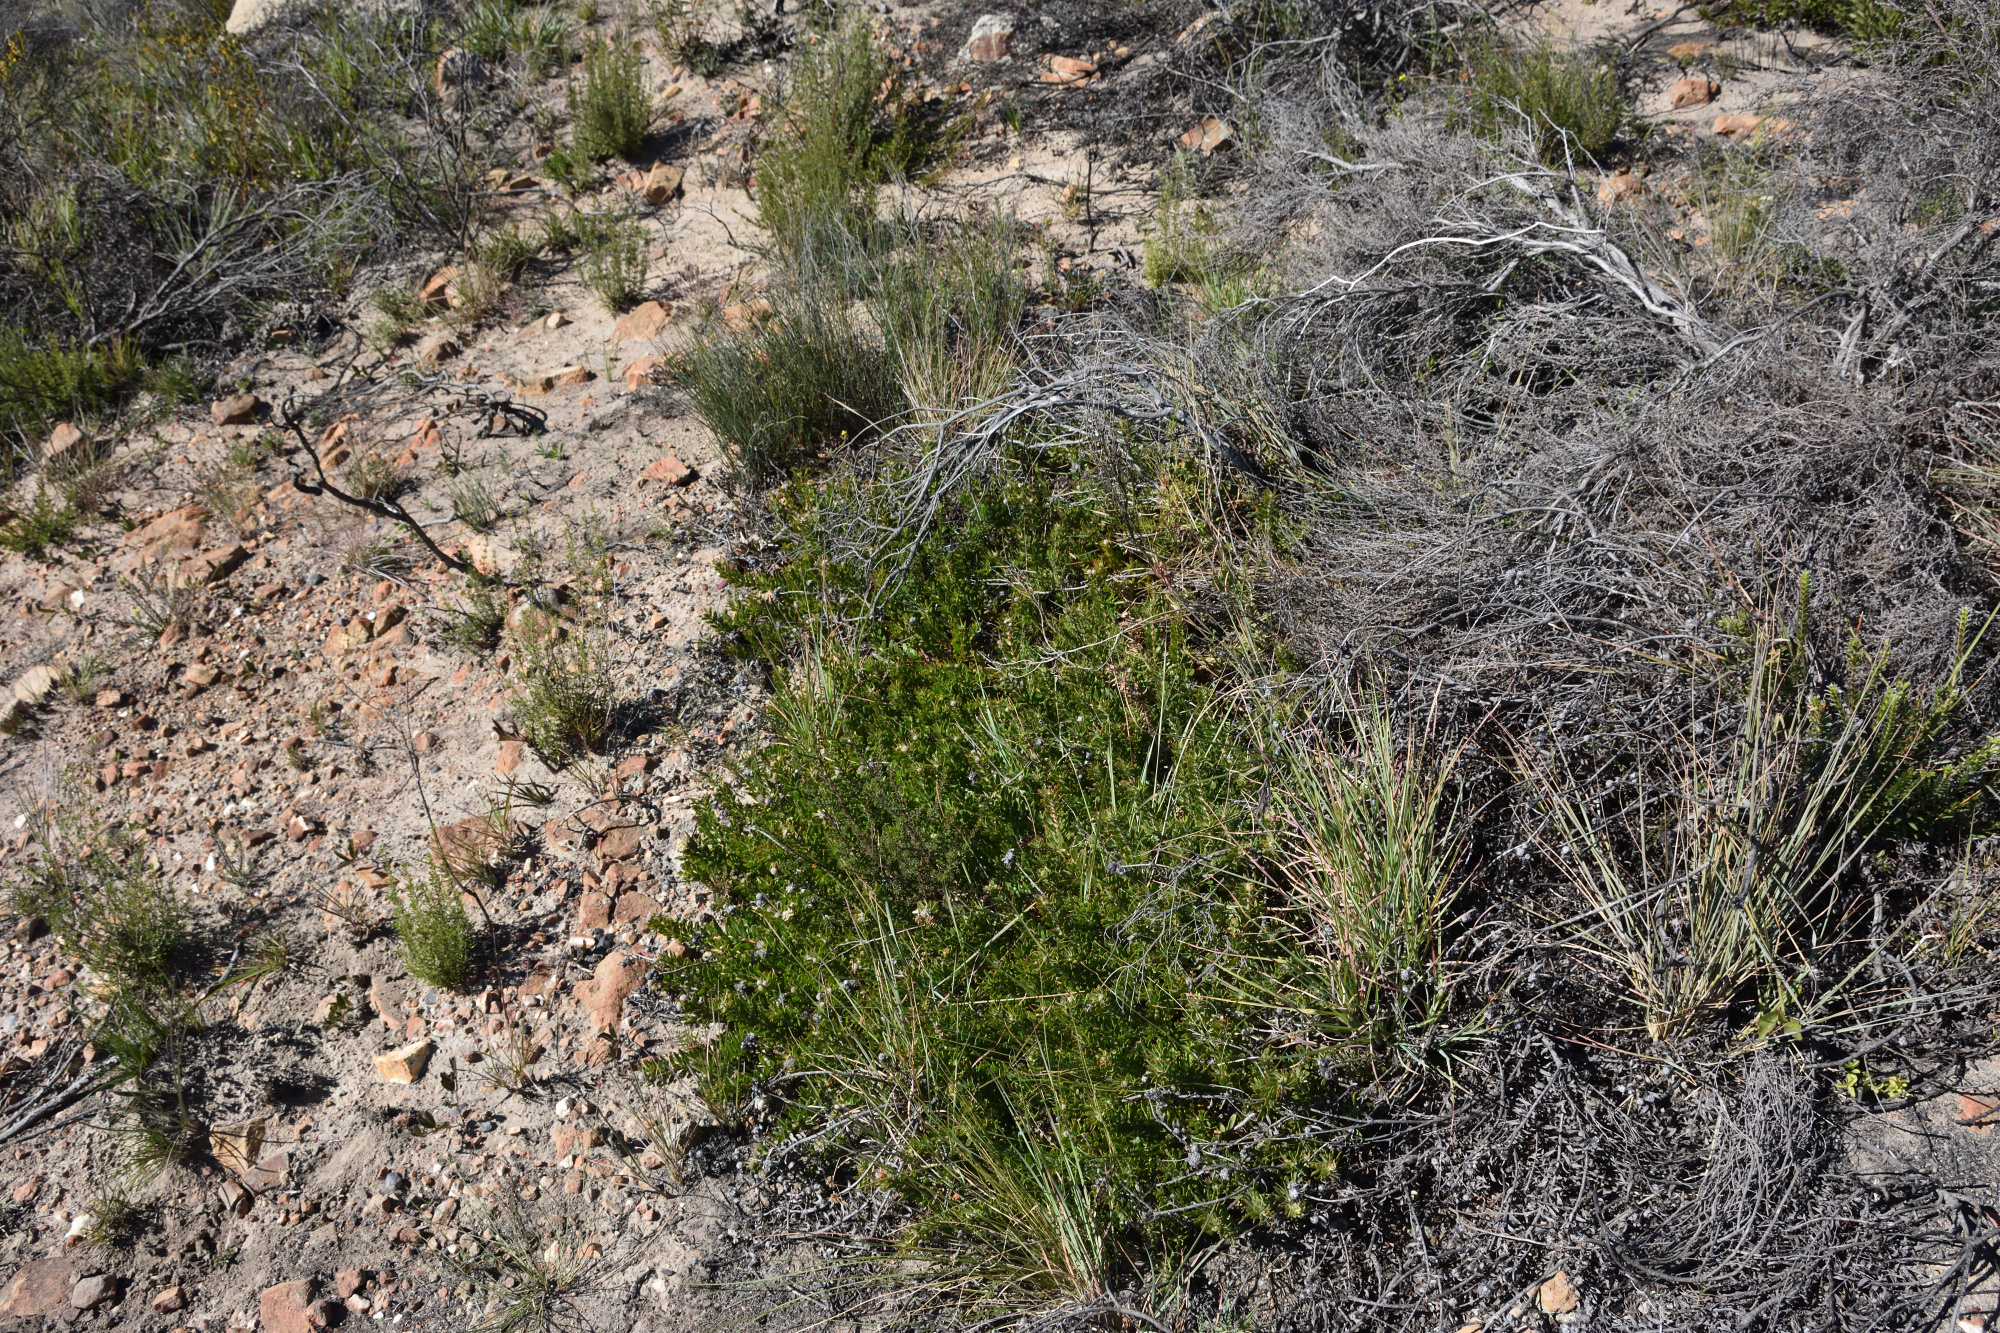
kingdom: Plantae
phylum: Tracheophyta
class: Magnoliopsida
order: Proteales
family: Proteaceae
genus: Leucospermum
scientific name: Leucospermum royenifolium
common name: Eastern pincushion
